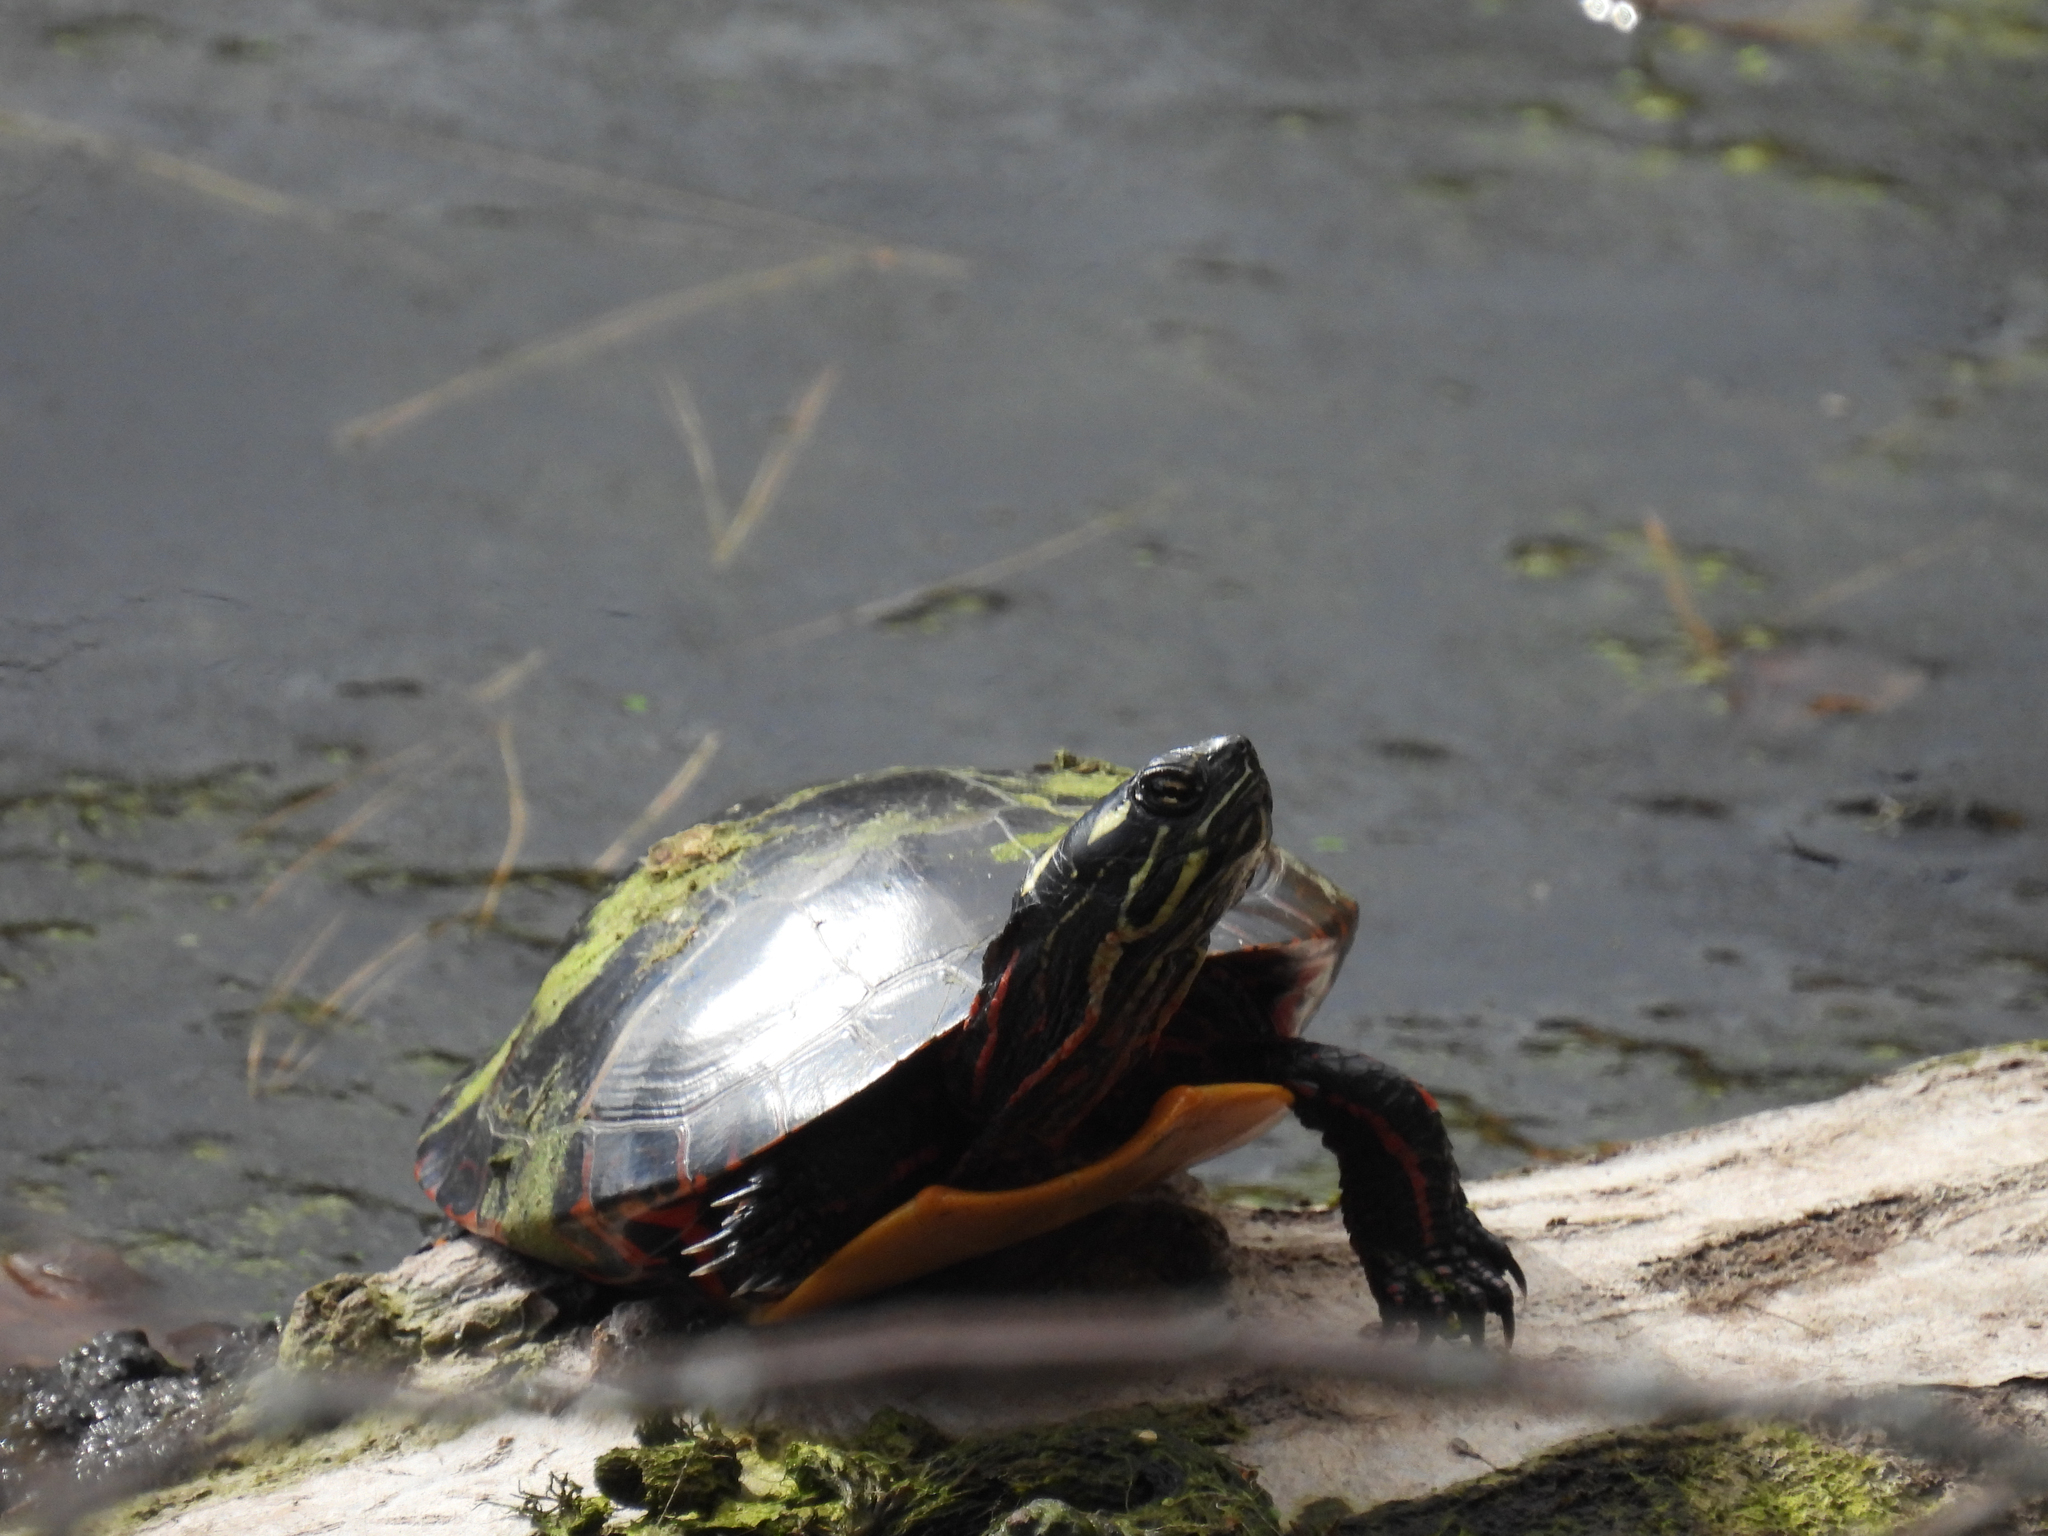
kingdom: Animalia
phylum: Chordata
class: Testudines
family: Emydidae
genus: Chrysemys
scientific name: Chrysemys picta
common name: Painted turtle
